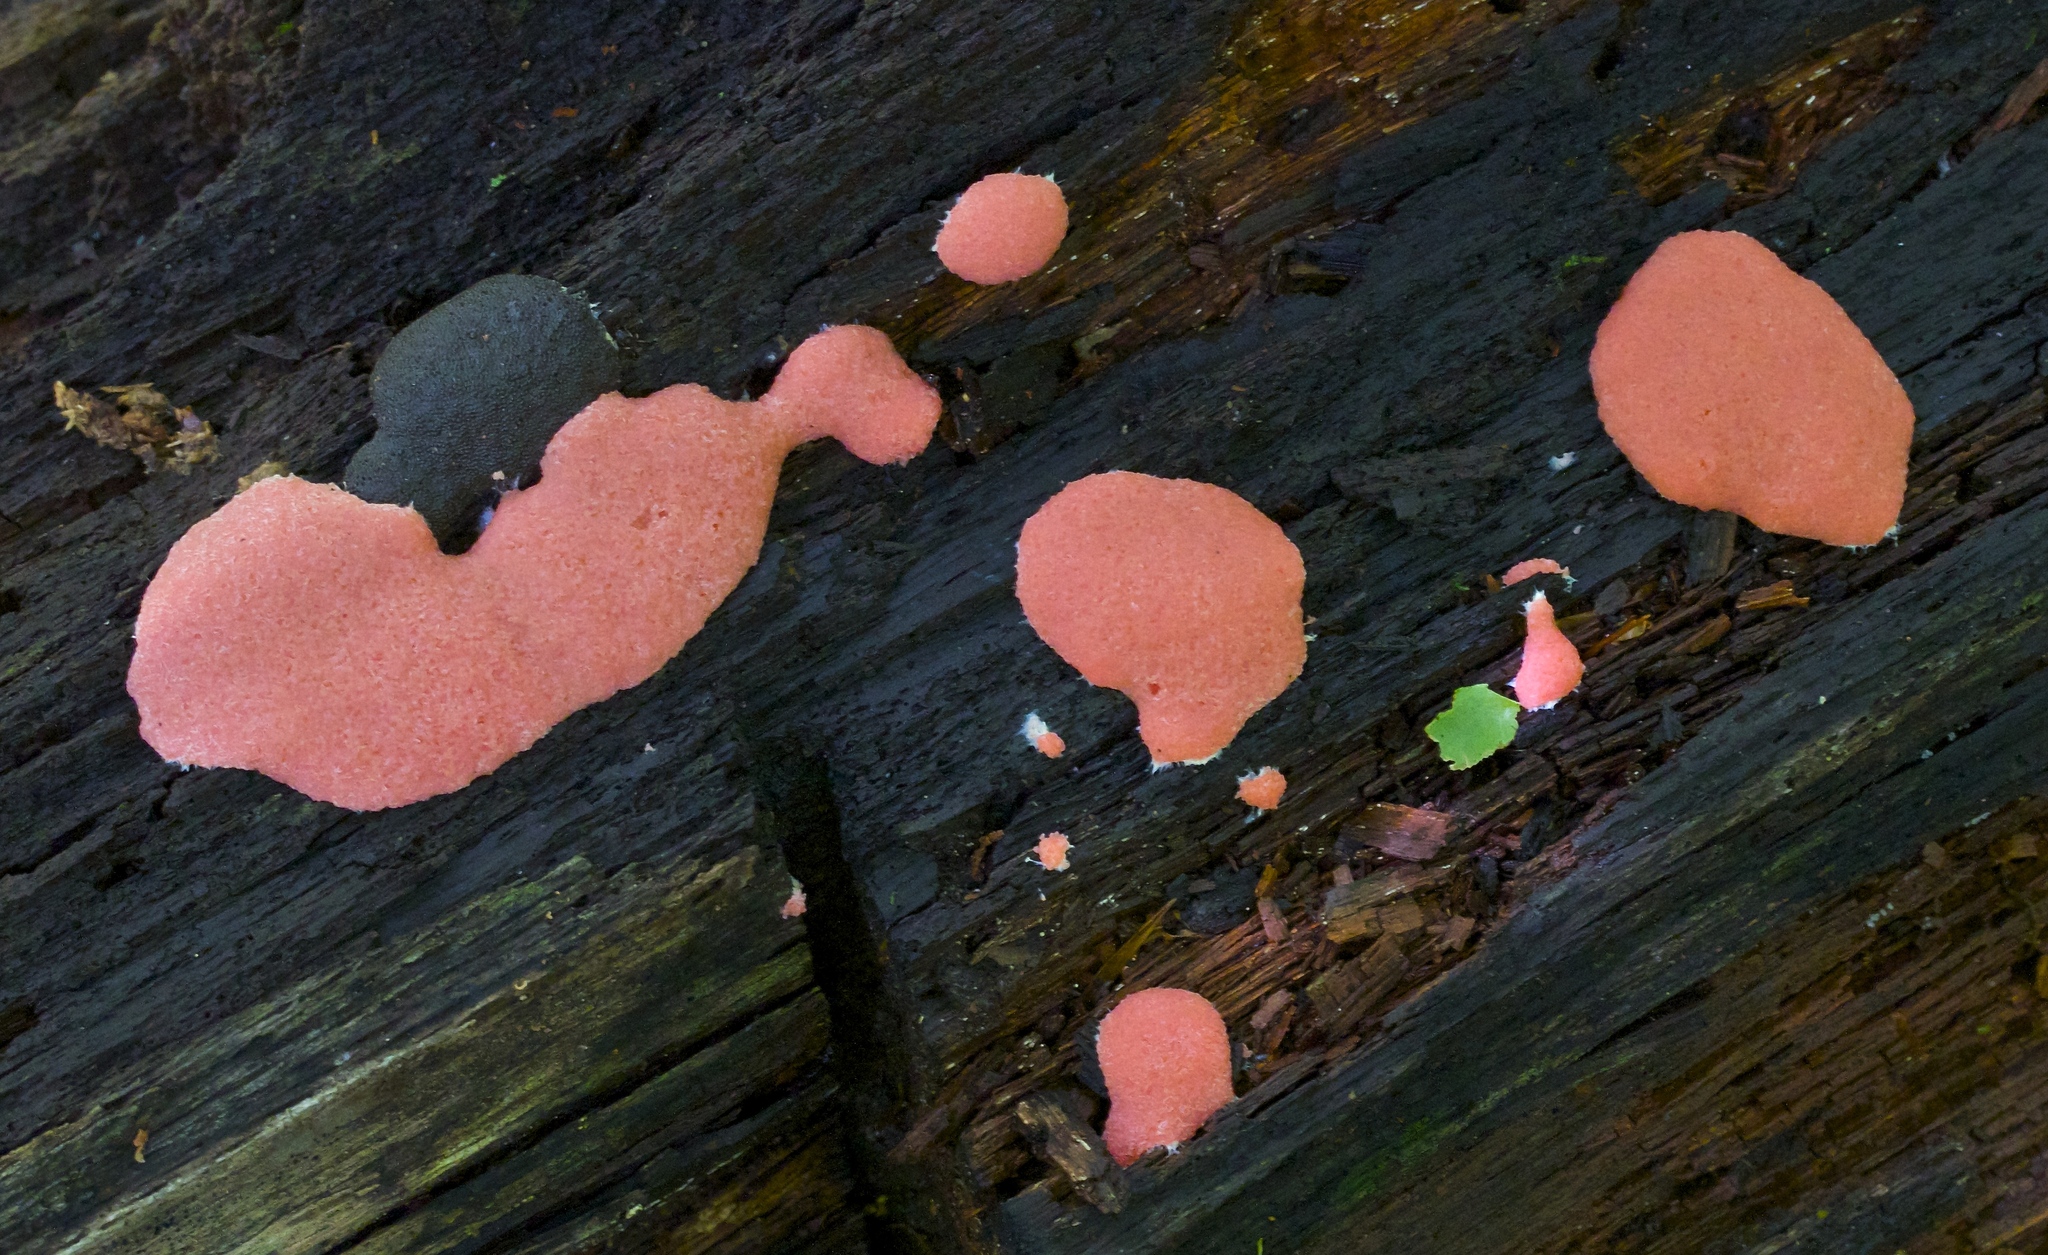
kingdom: Protozoa
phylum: Mycetozoa
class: Myxomycetes
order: Cribrariales
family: Tubiferaceae
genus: Tubifera
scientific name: Tubifera magna
